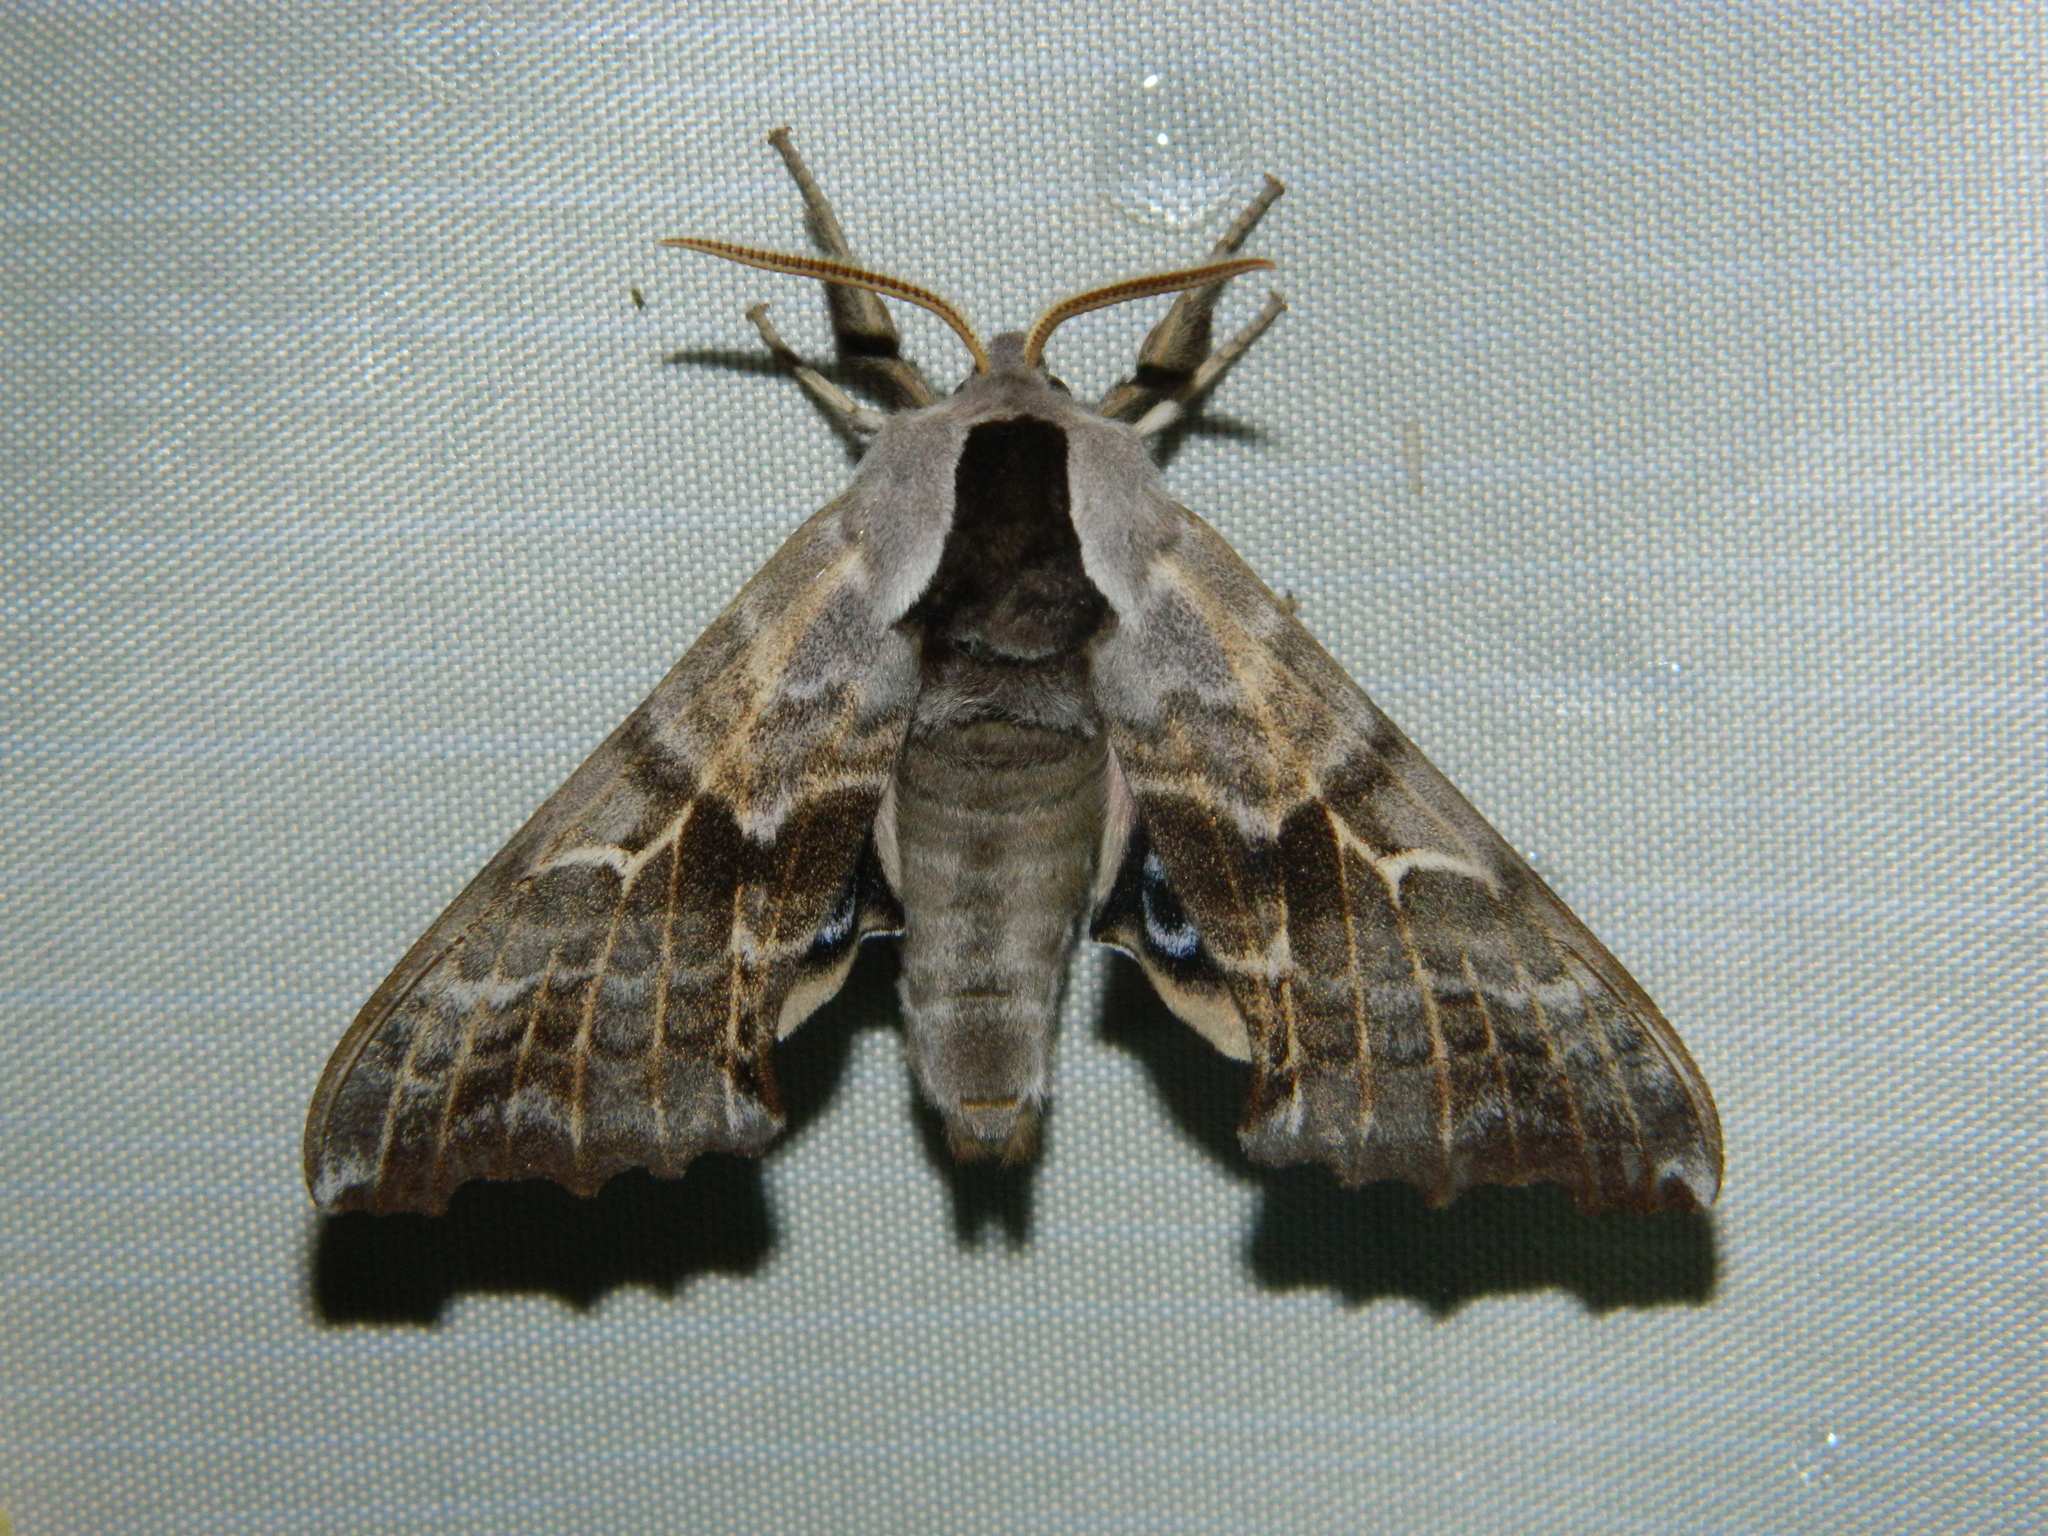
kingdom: Animalia
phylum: Arthropoda
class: Insecta
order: Lepidoptera
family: Sphingidae
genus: Smerinthus
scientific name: Smerinthus cerisyi
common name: Cerisy's sphinx moth
